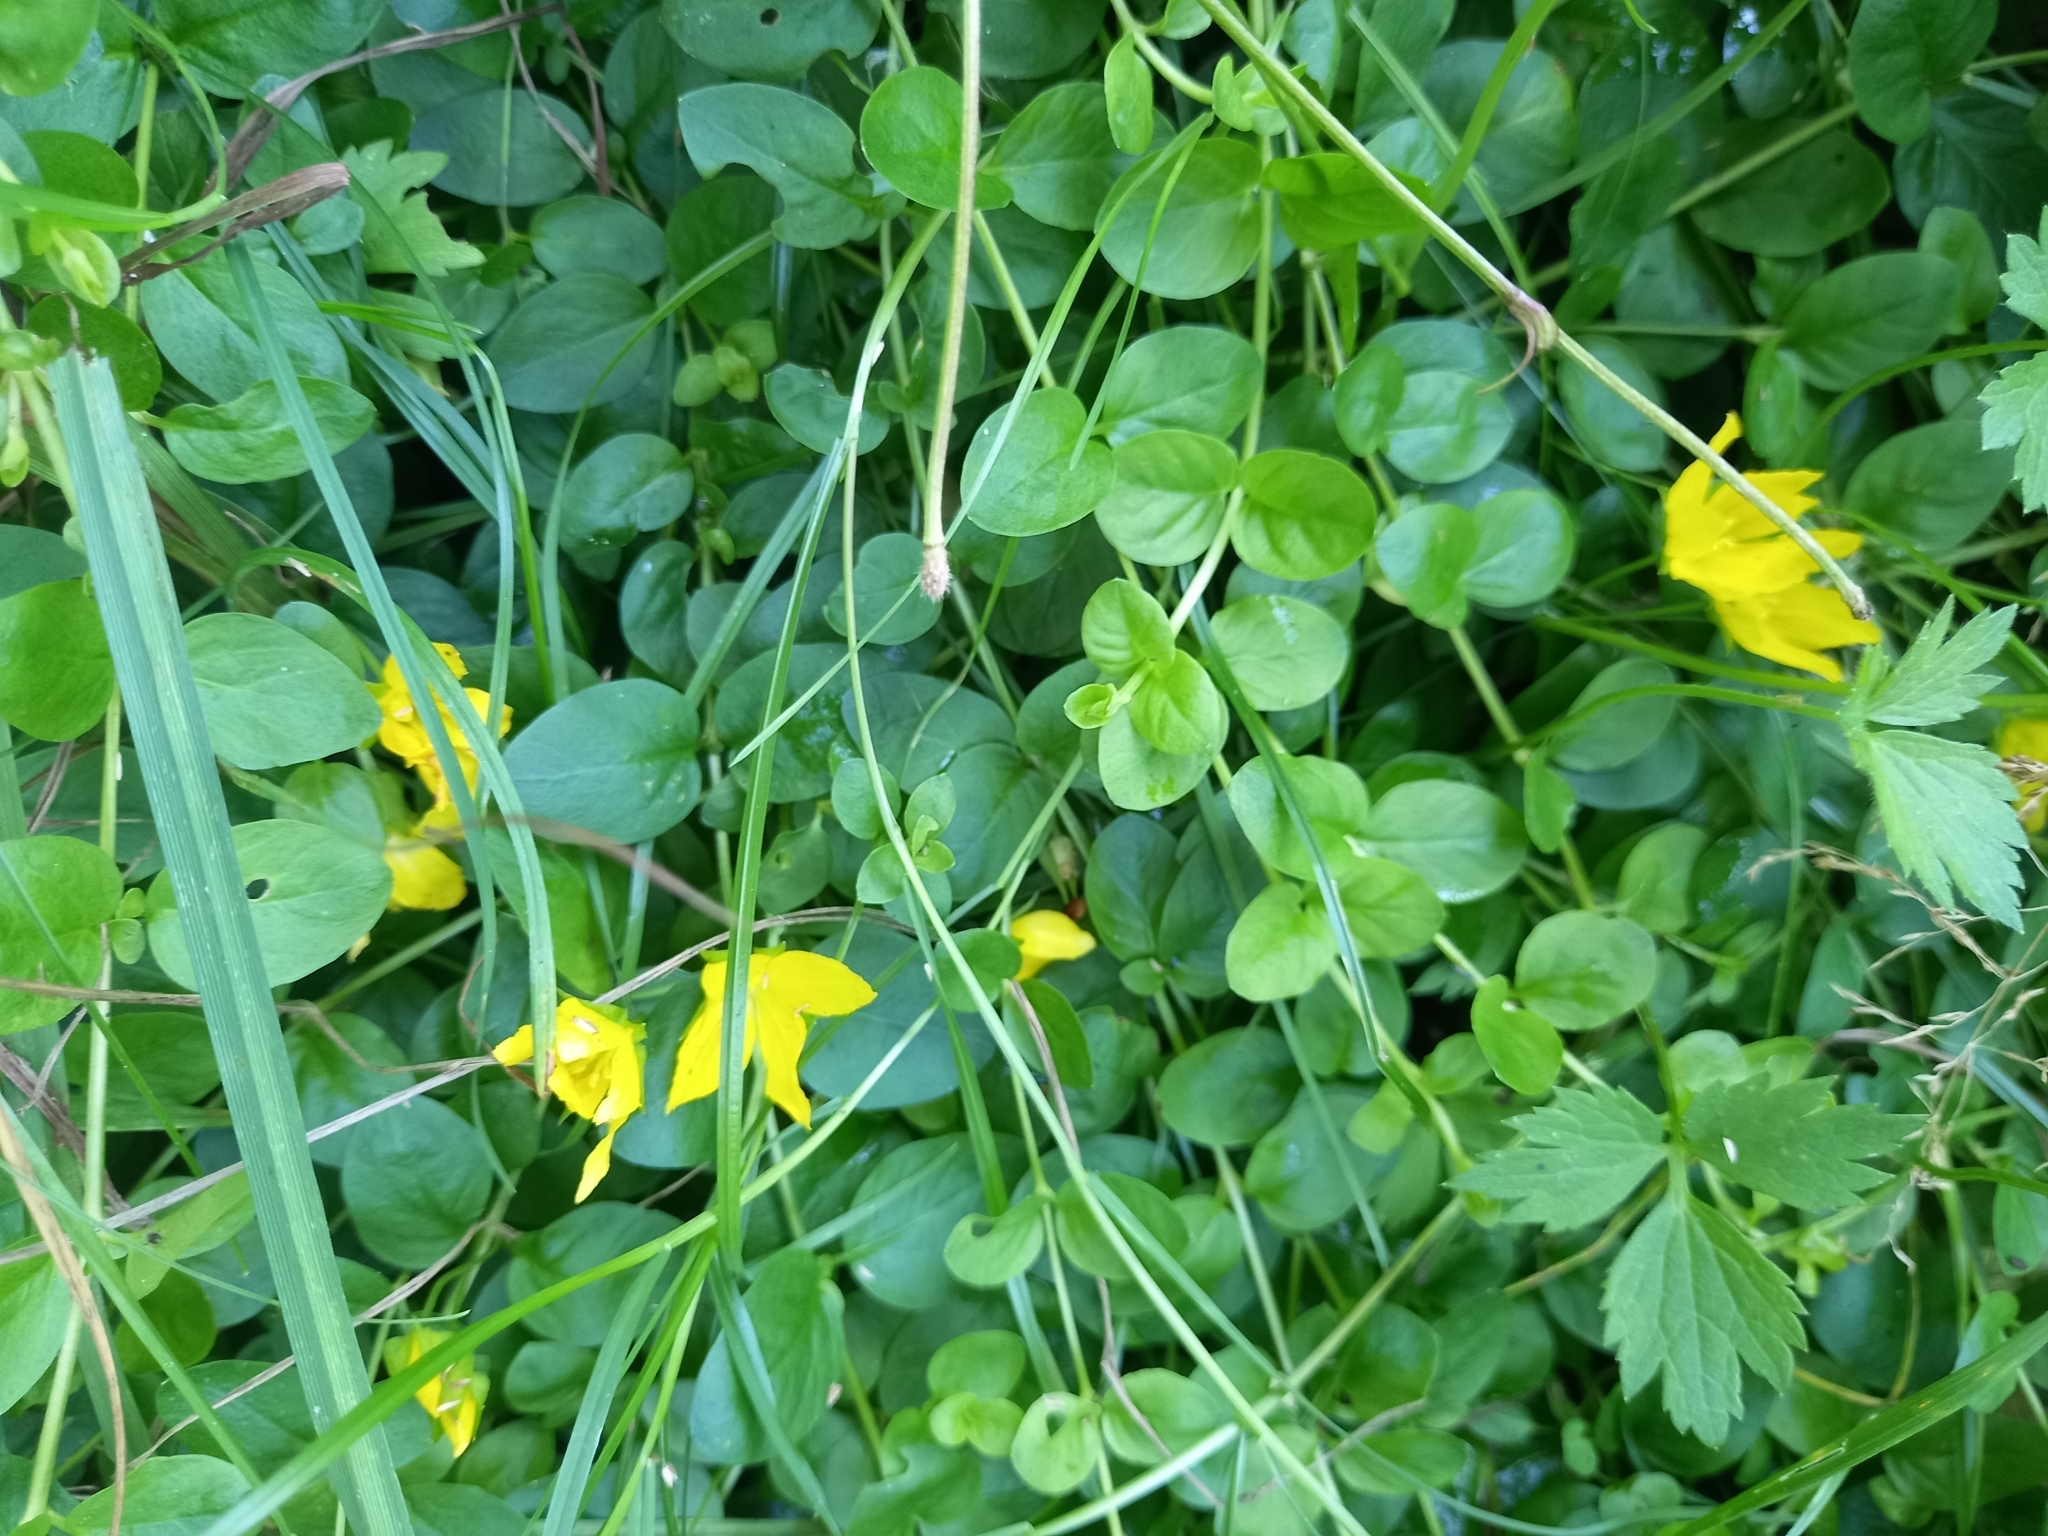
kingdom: Plantae
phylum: Tracheophyta
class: Magnoliopsida
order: Ericales
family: Primulaceae
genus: Lysimachia
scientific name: Lysimachia nummularia
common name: Moneywort
